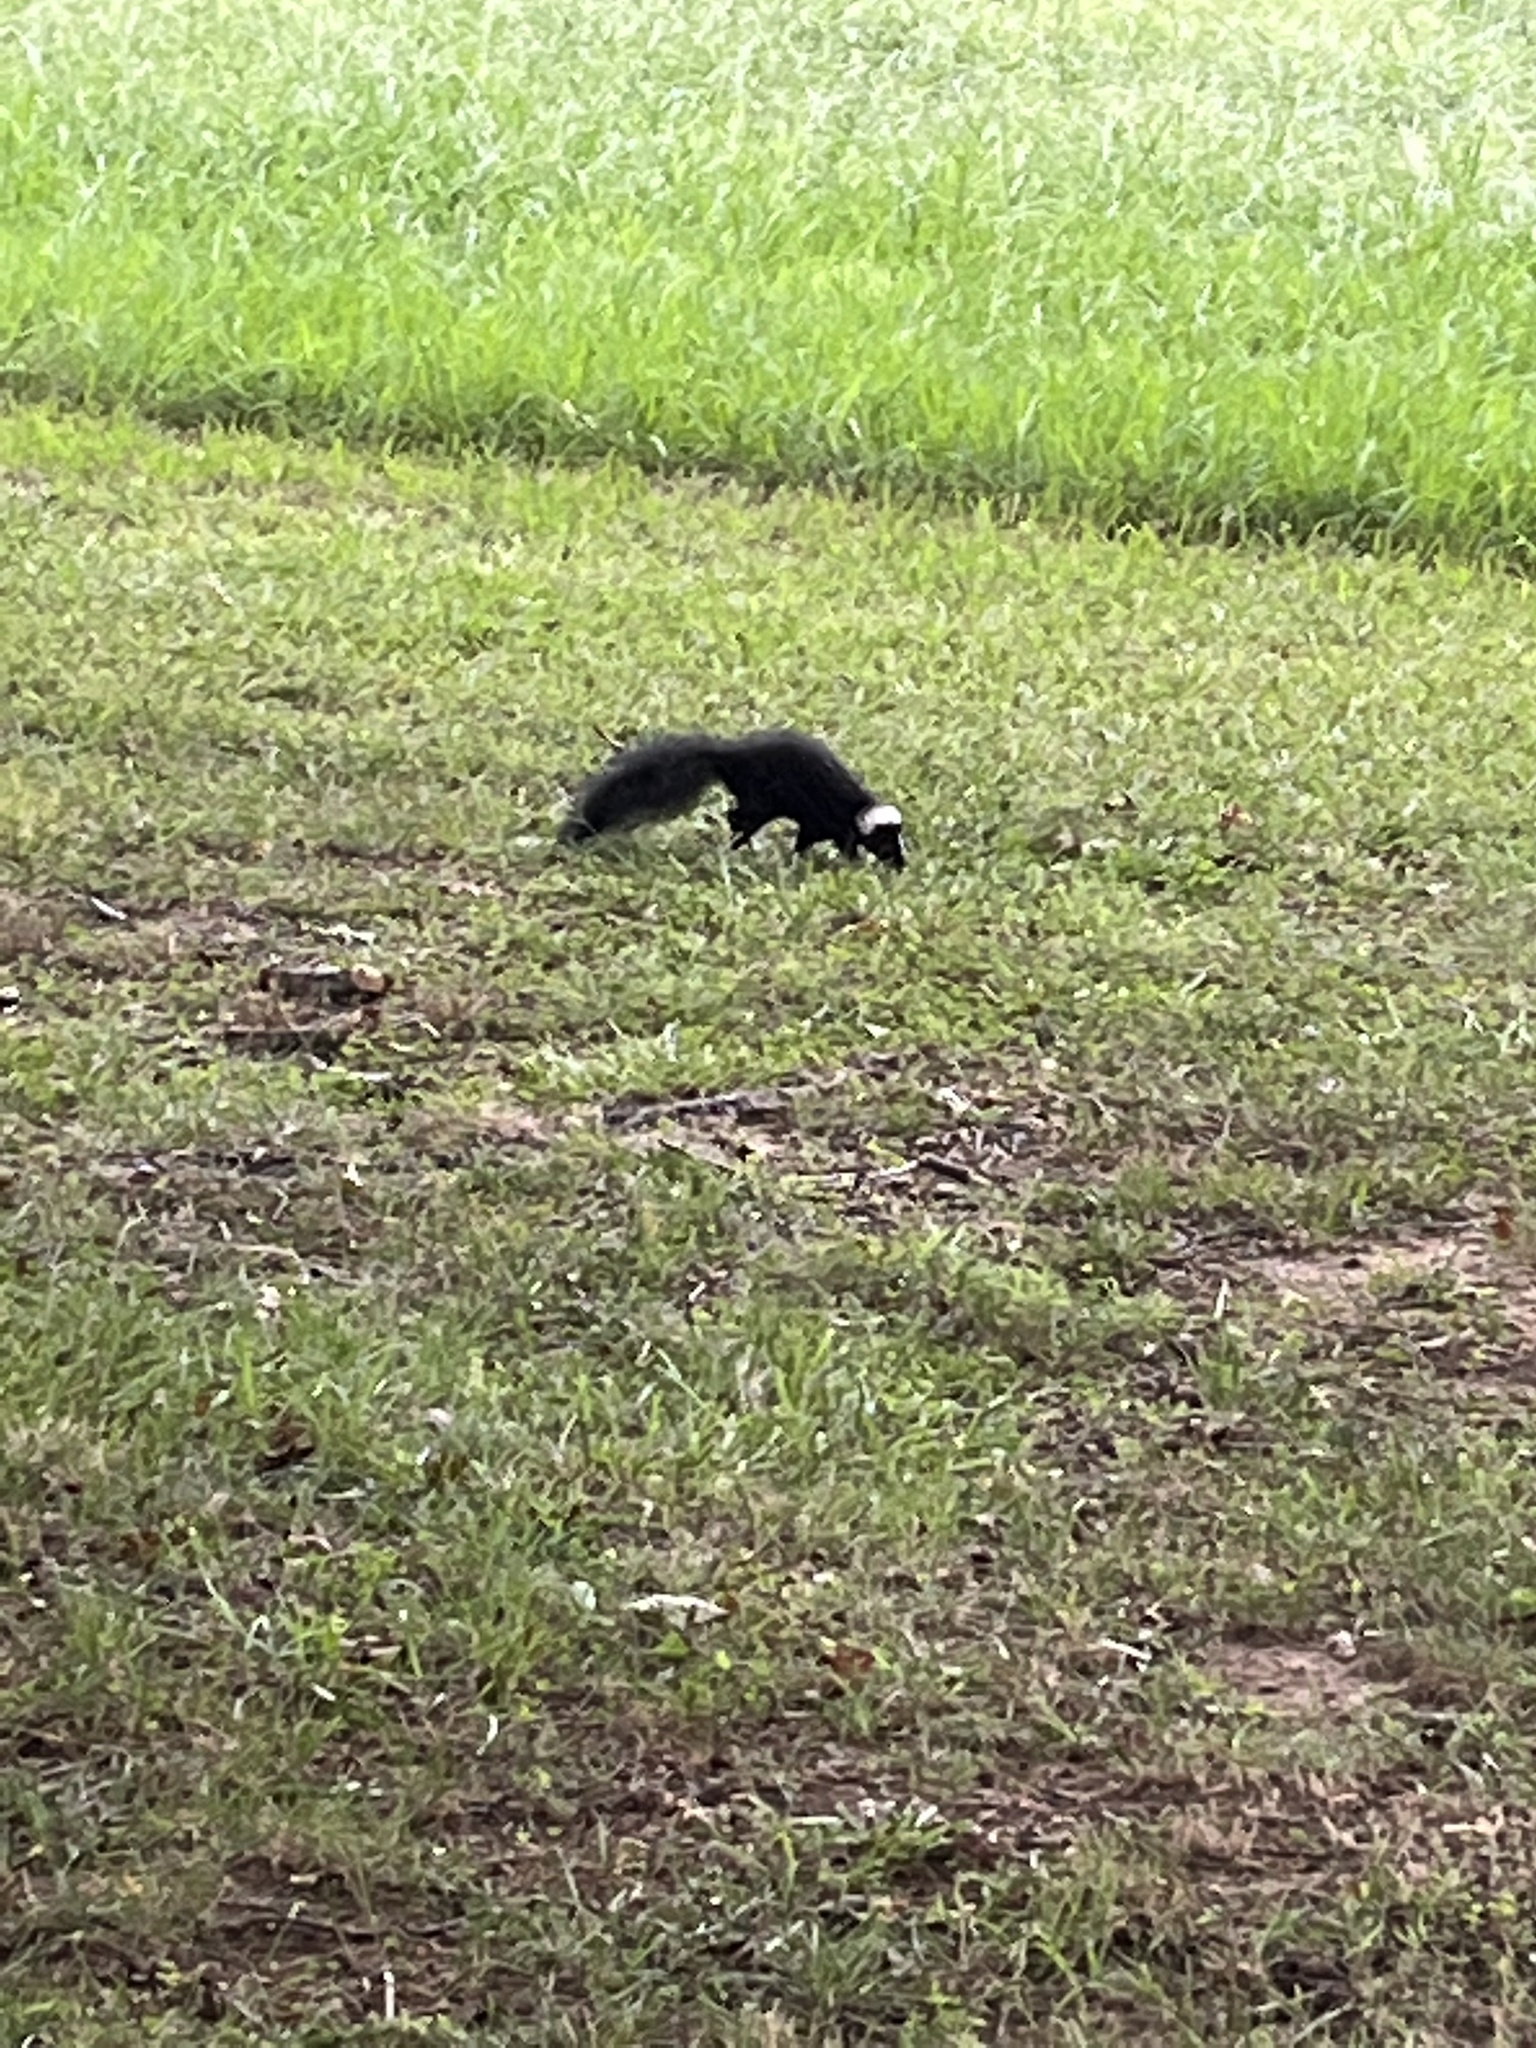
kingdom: Animalia
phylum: Chordata
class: Mammalia
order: Carnivora
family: Mephitidae
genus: Mephitis
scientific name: Mephitis mephitis
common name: Striped skunk
